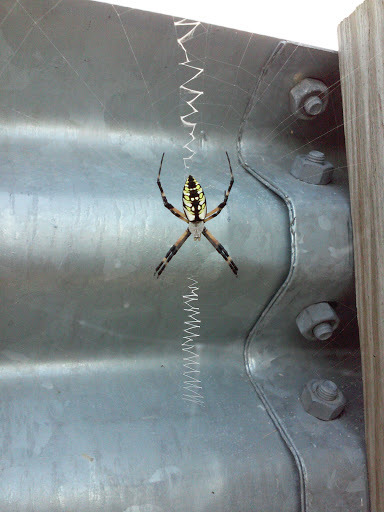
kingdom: Animalia
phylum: Arthropoda
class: Arachnida
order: Araneae
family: Araneidae
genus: Argiope
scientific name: Argiope aurantia
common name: Orb weavers
